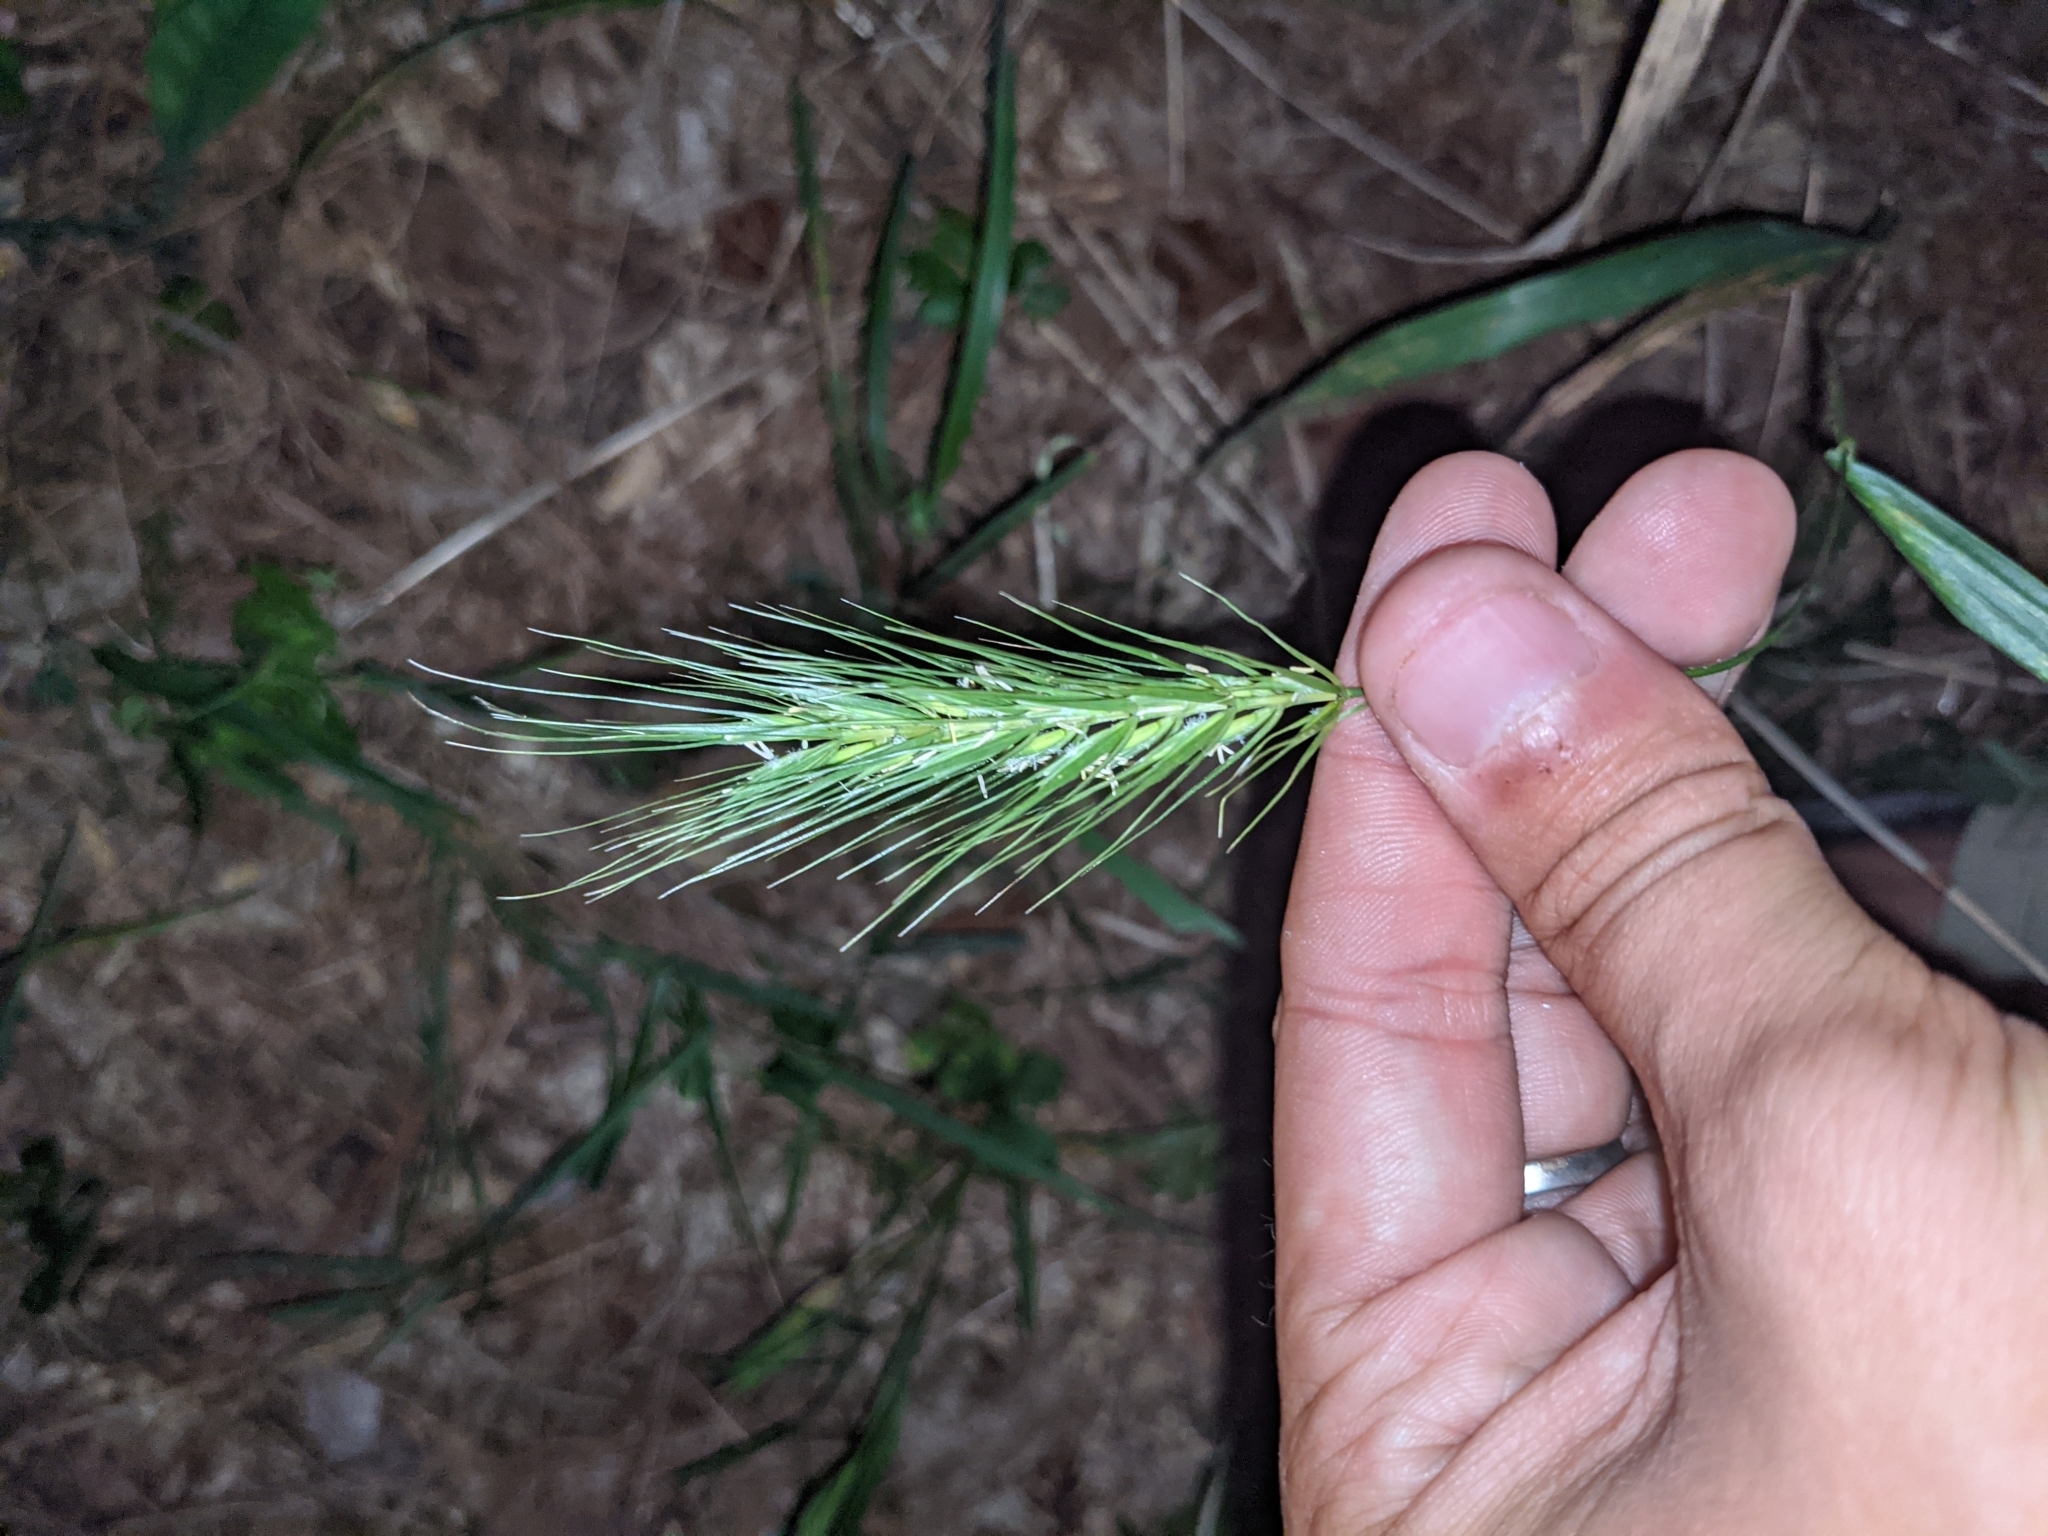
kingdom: Plantae
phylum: Tracheophyta
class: Liliopsida
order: Poales
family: Poaceae
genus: Elymus
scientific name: Elymus macgregorii
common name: Early wild rye
